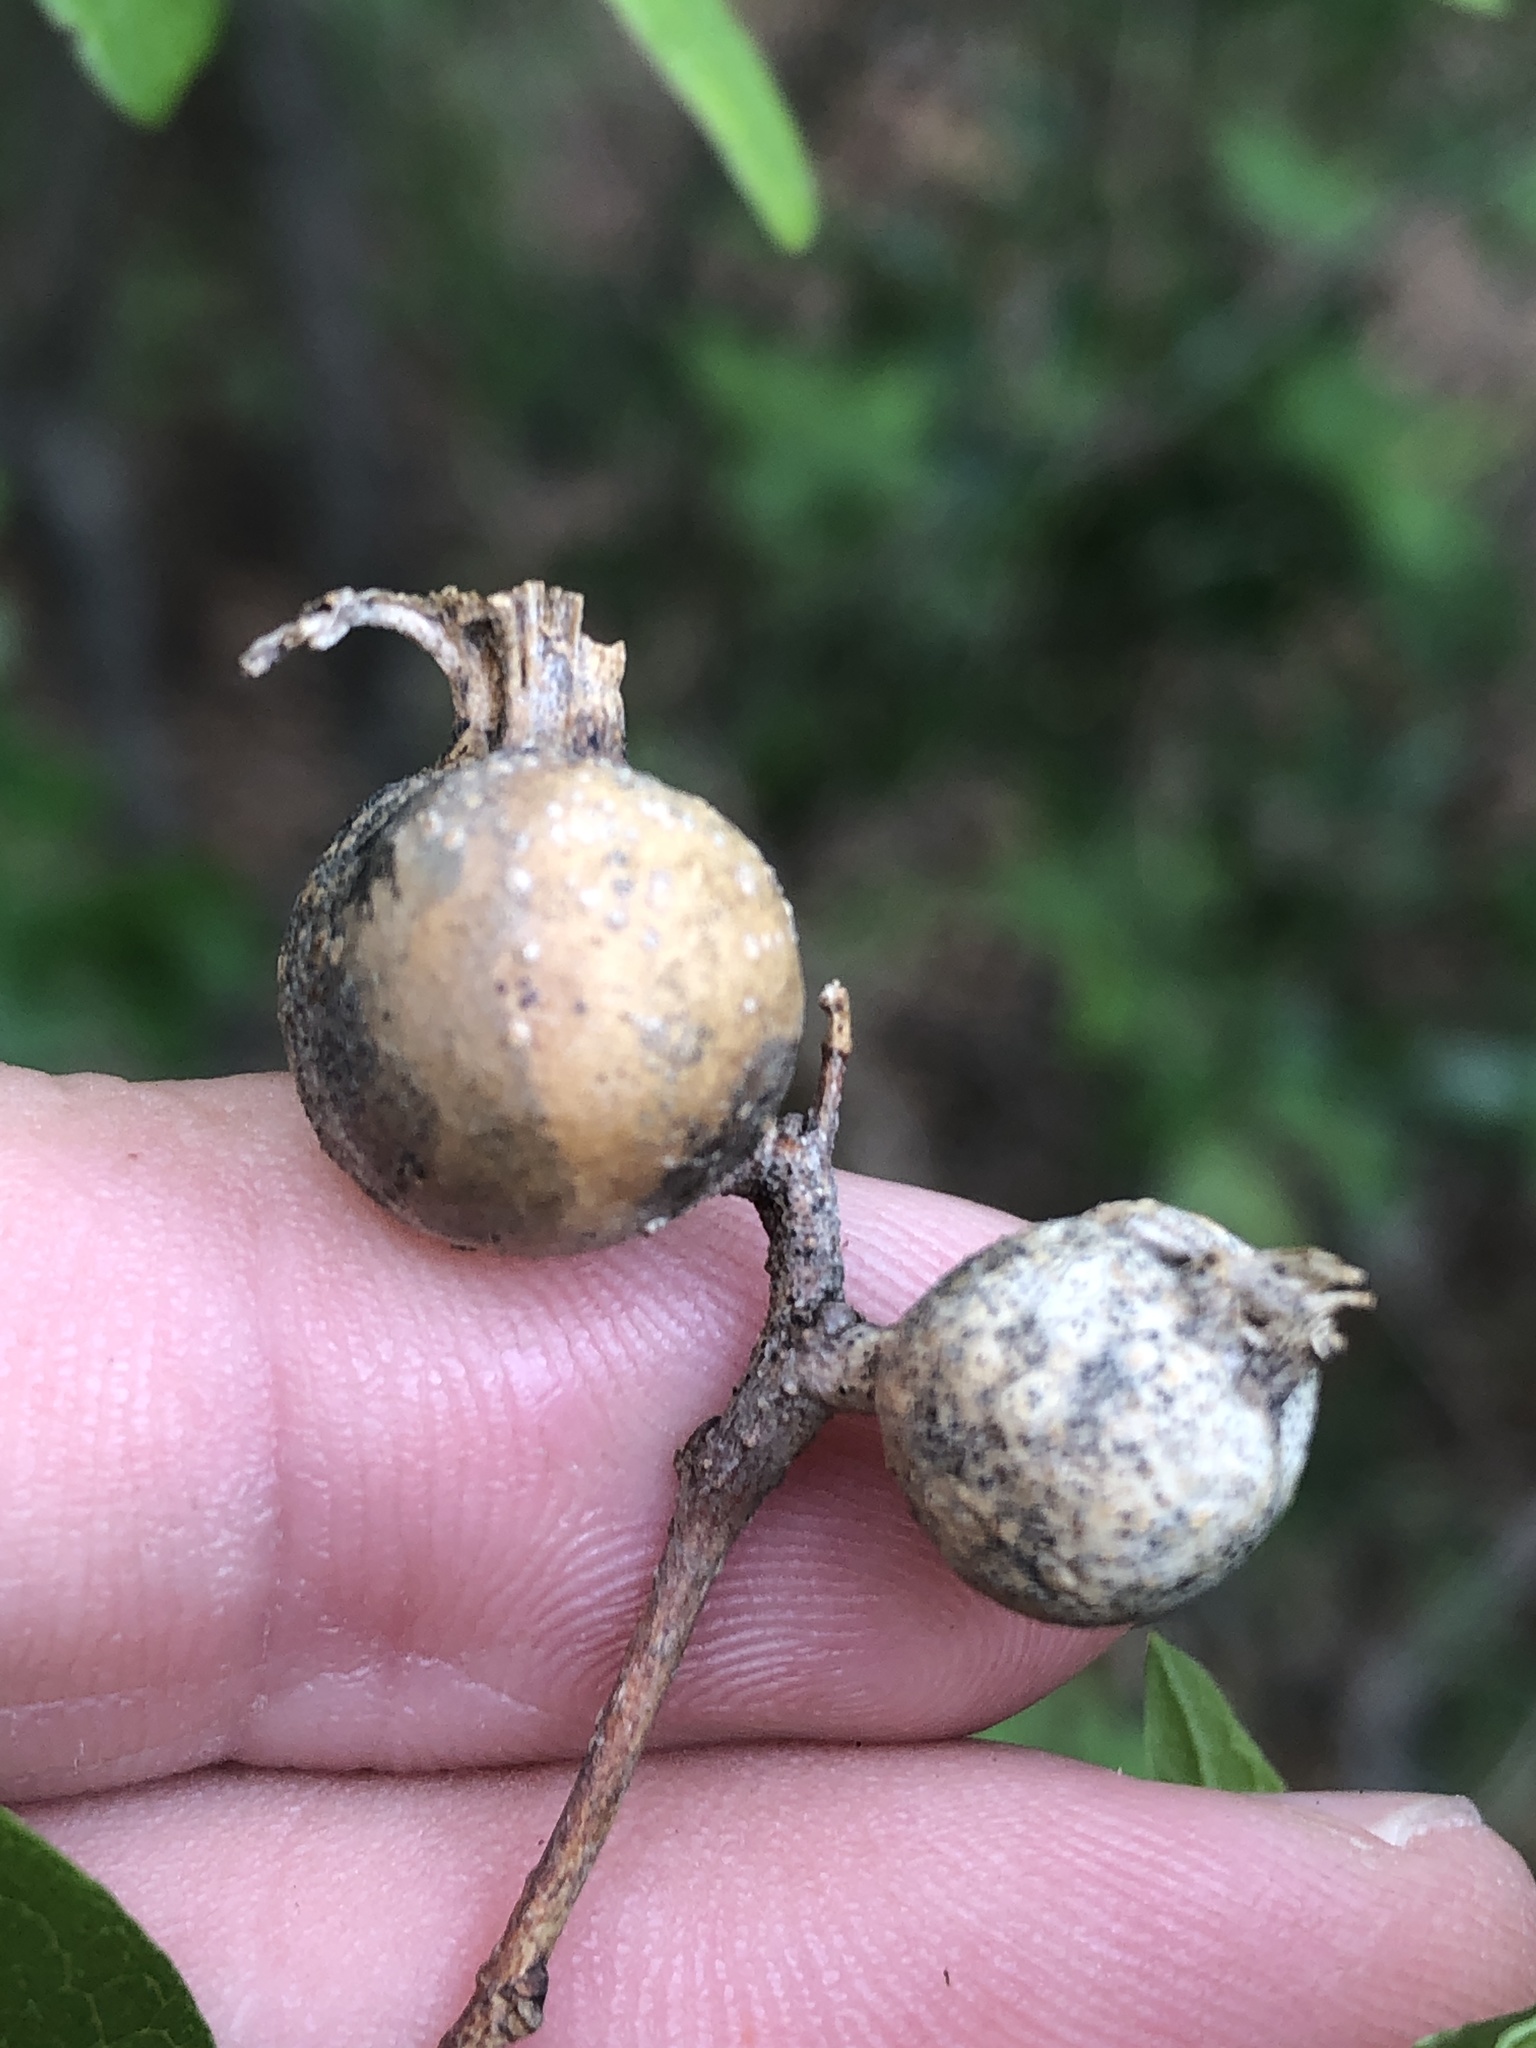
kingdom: Animalia
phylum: Arthropoda
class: Insecta
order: Hemiptera
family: Aphalaridae
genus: Pachypsylla
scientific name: Pachypsylla venusta
